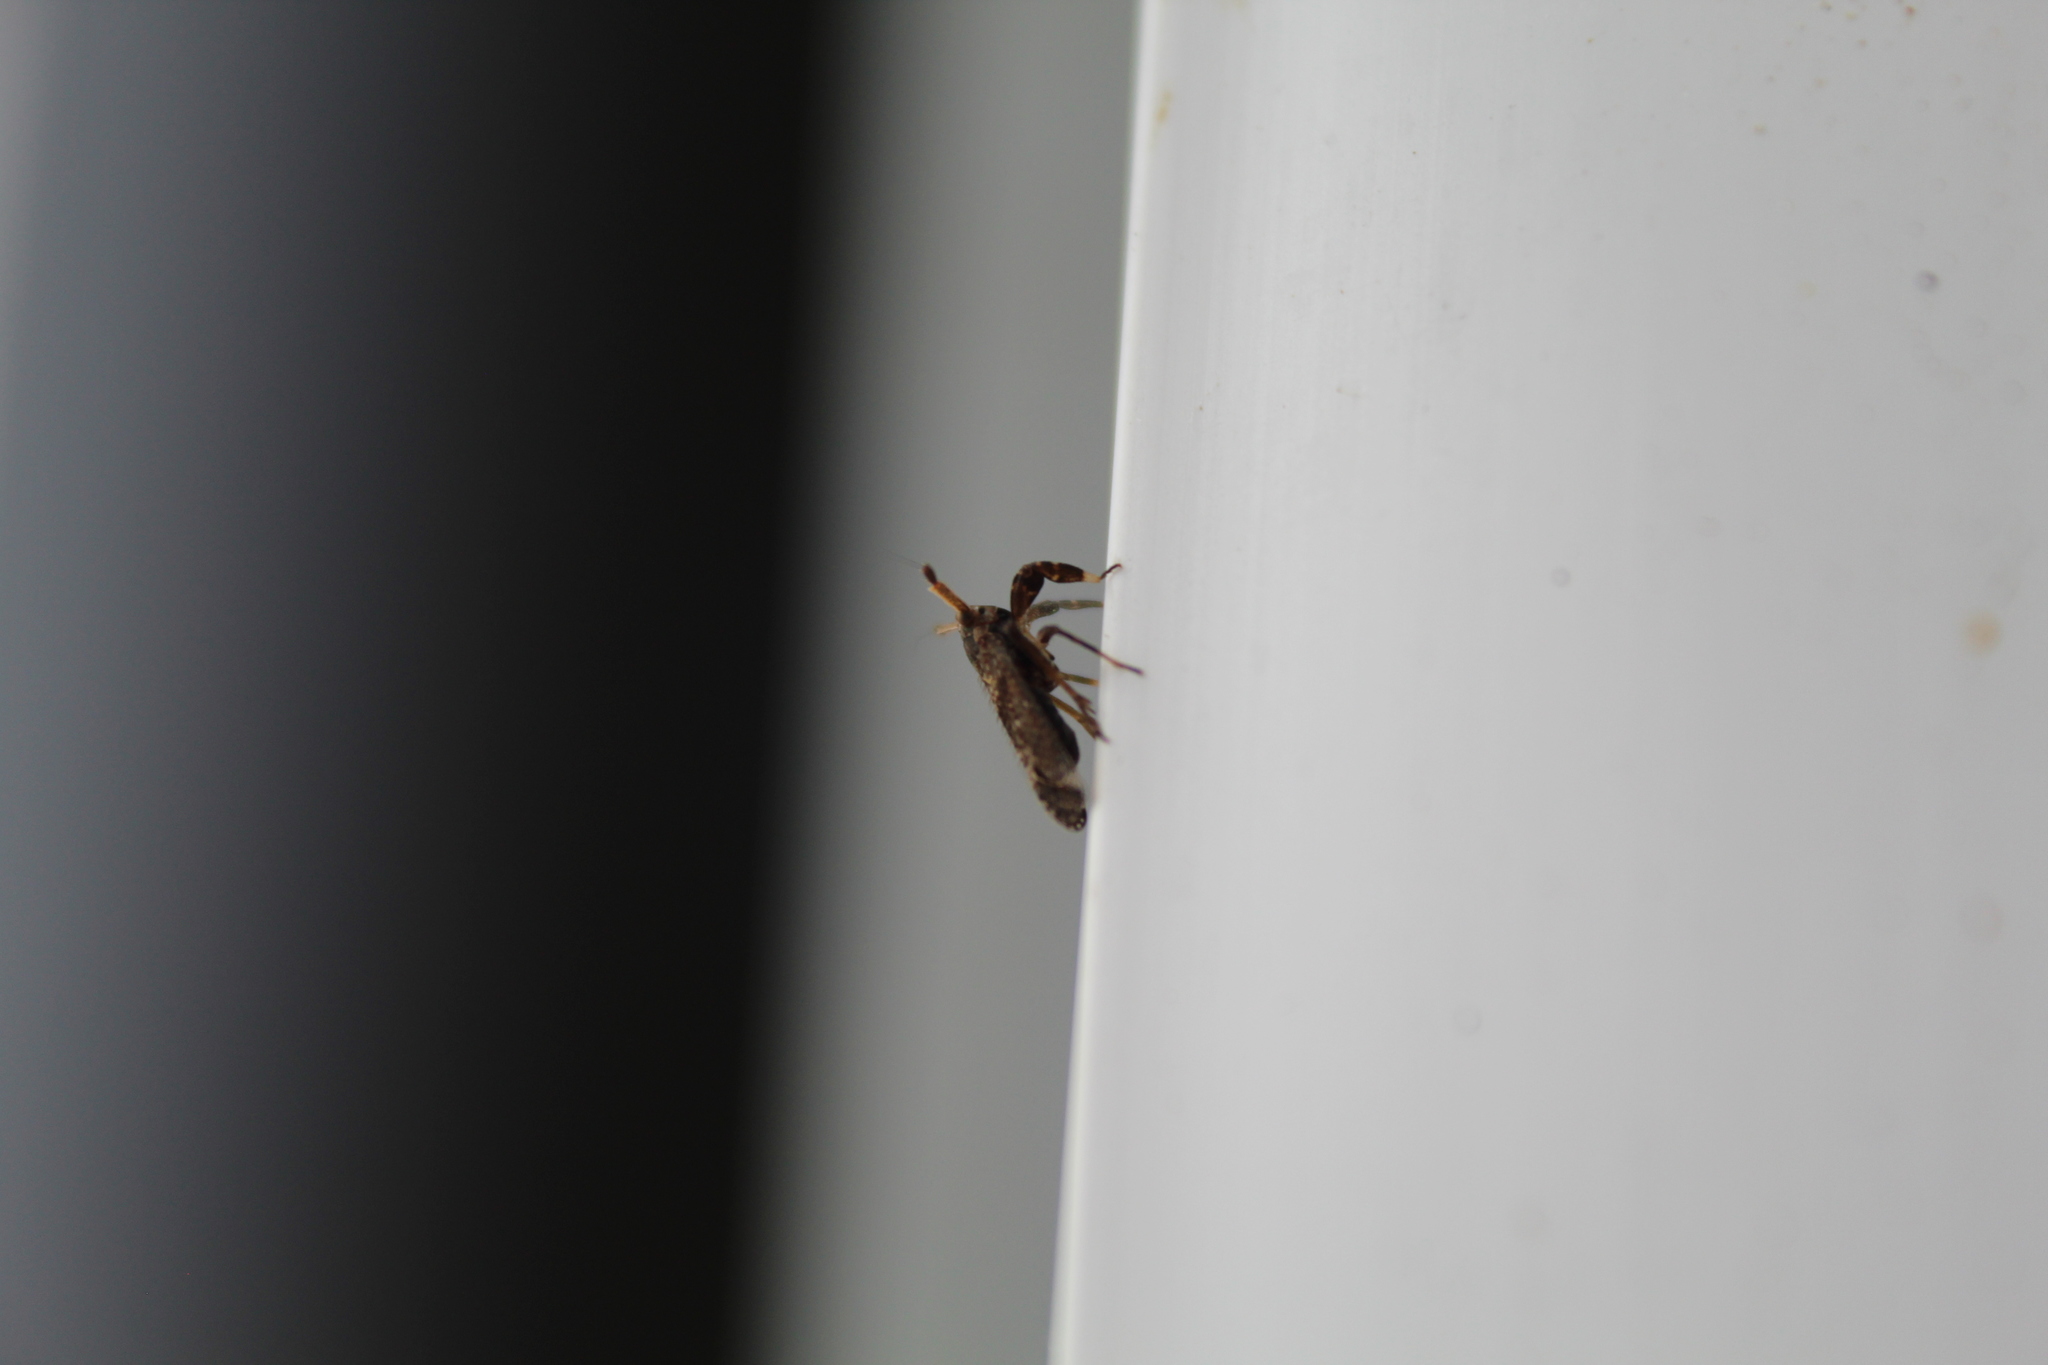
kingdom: Animalia
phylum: Arthropoda
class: Insecta
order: Hemiptera
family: Delphacidae
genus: Asiraca
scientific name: Asiraca clavicornis
